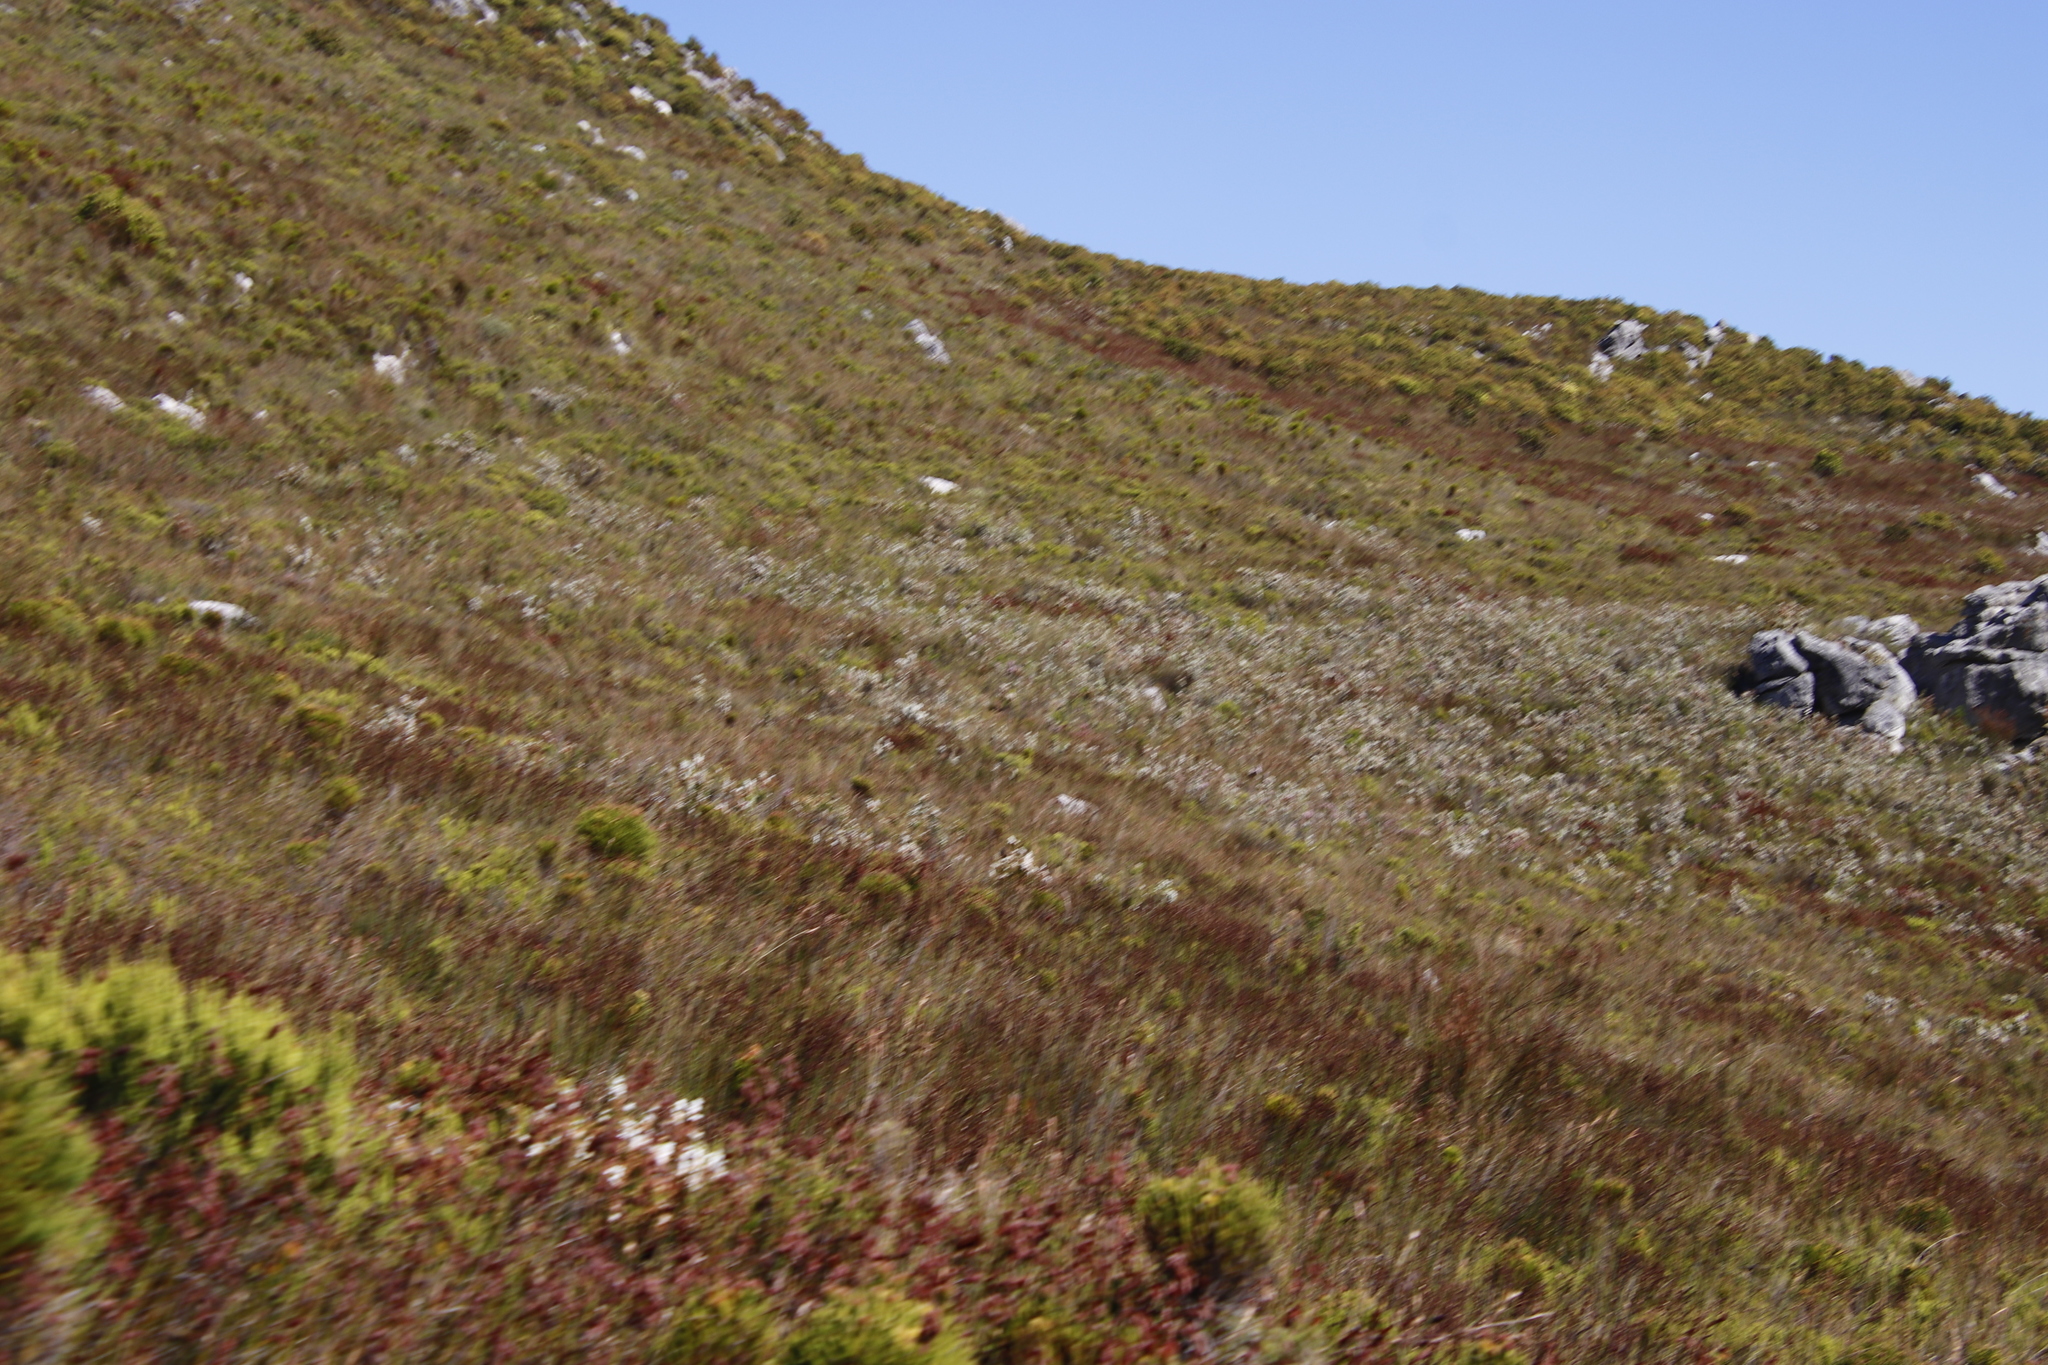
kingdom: Plantae
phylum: Tracheophyta
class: Magnoliopsida
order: Ericales
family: Ericaceae
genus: Erica
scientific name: Erica sitiens
